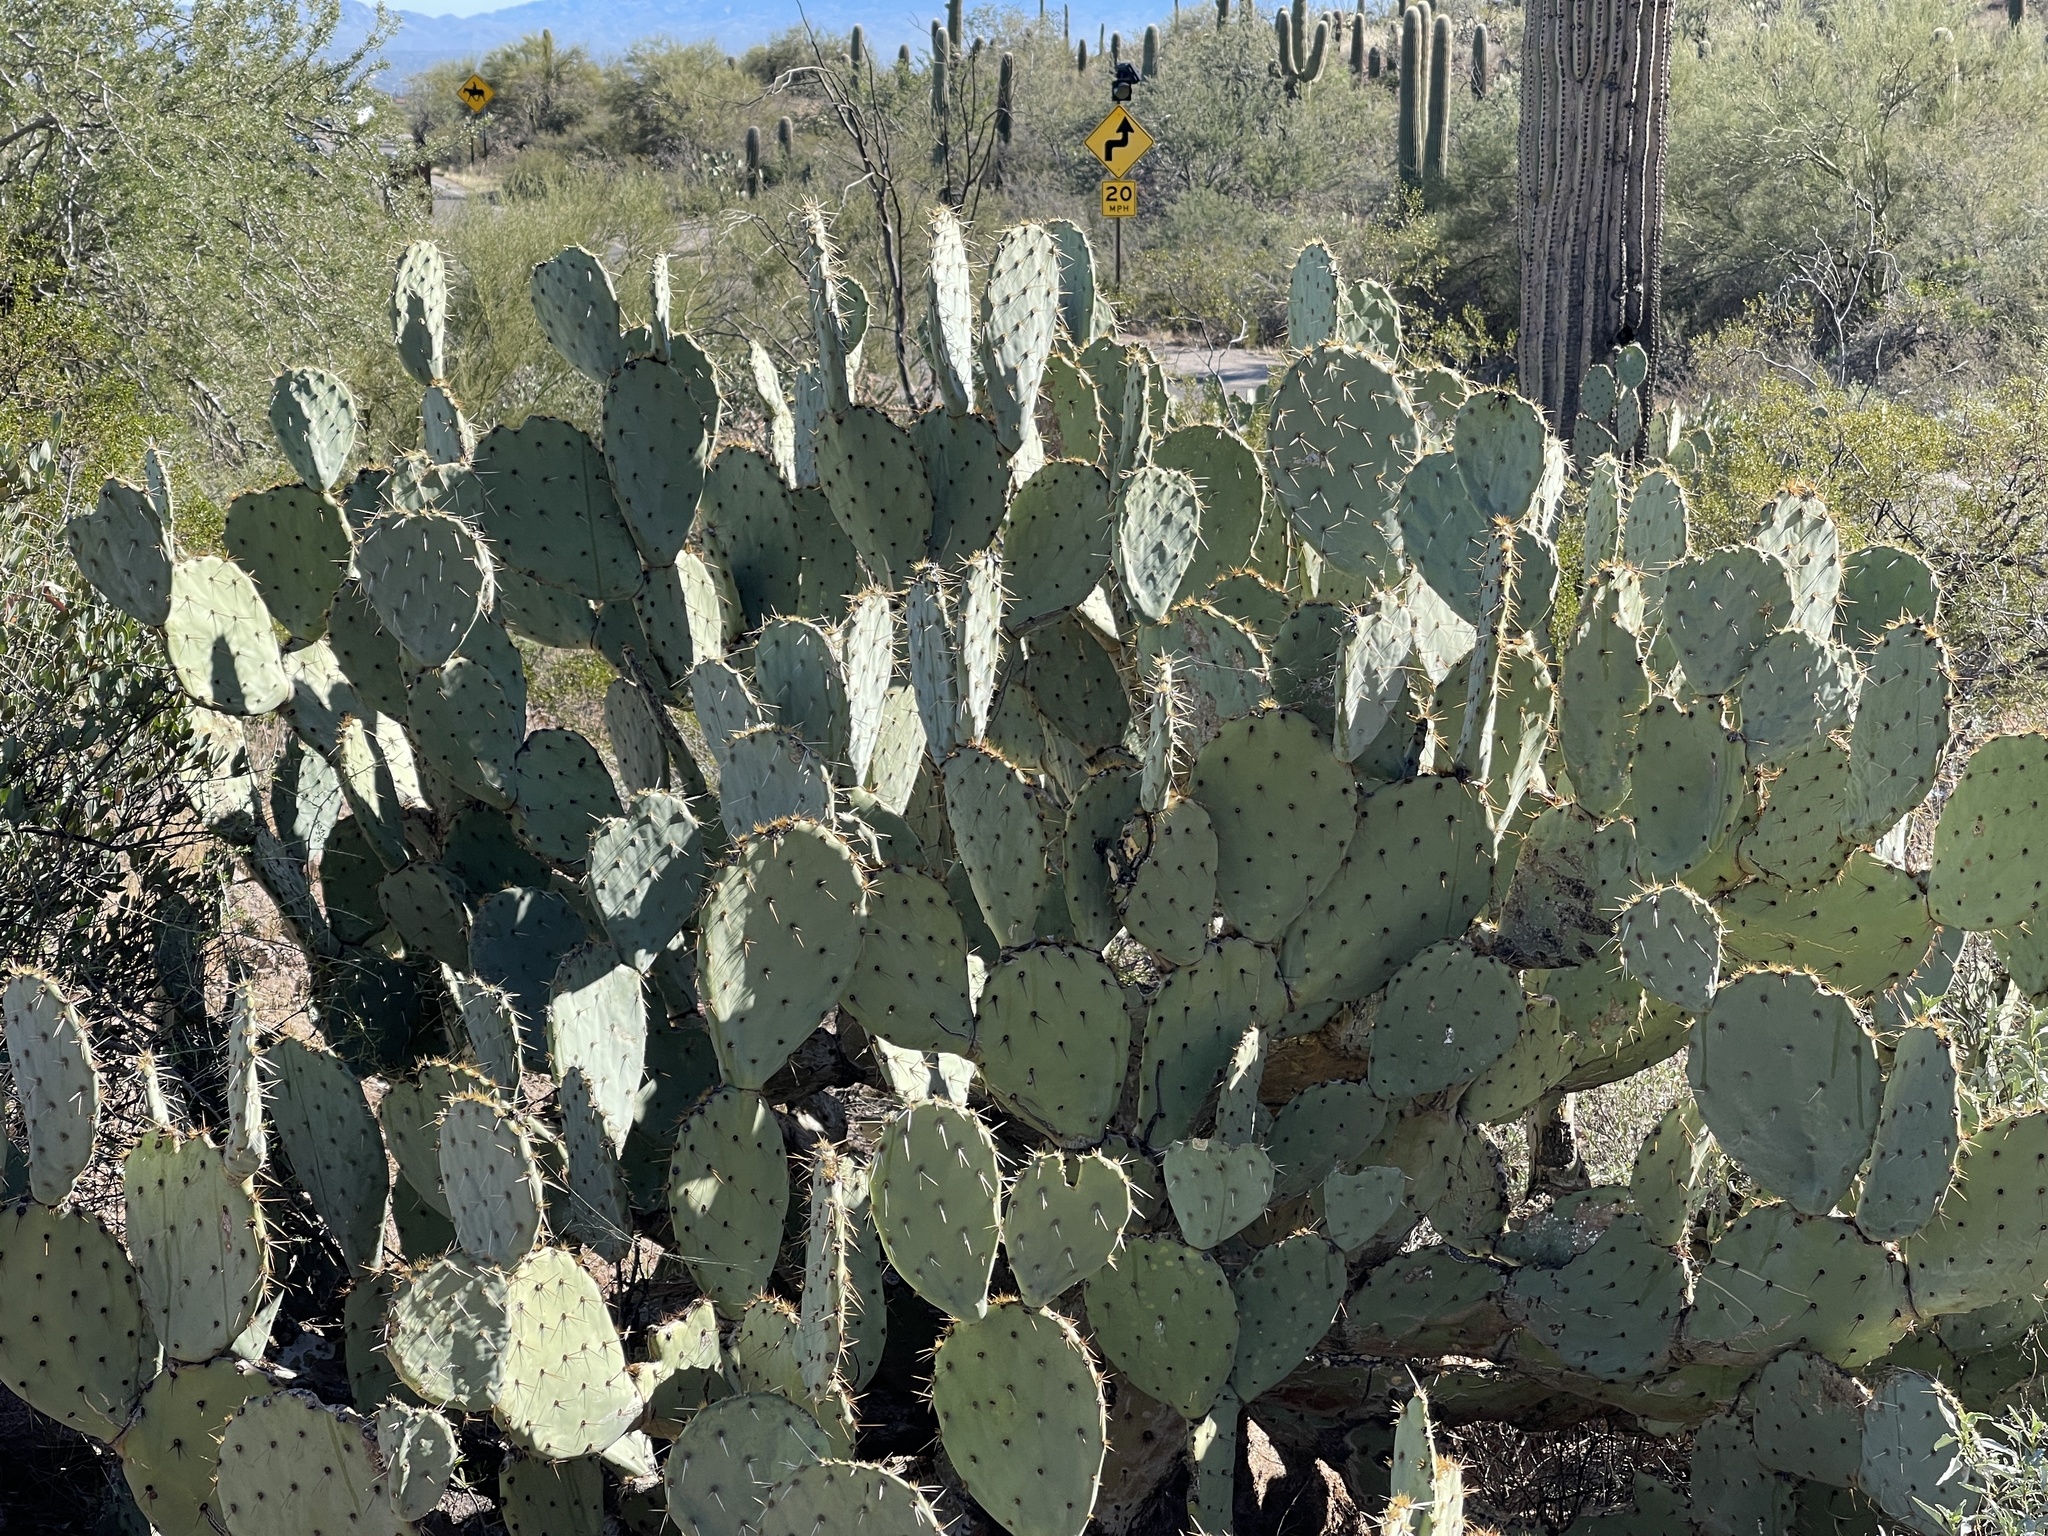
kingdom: Plantae
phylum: Tracheophyta
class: Magnoliopsida
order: Caryophyllales
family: Cactaceae
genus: Opuntia
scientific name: Opuntia engelmannii
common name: Cactus-apple
